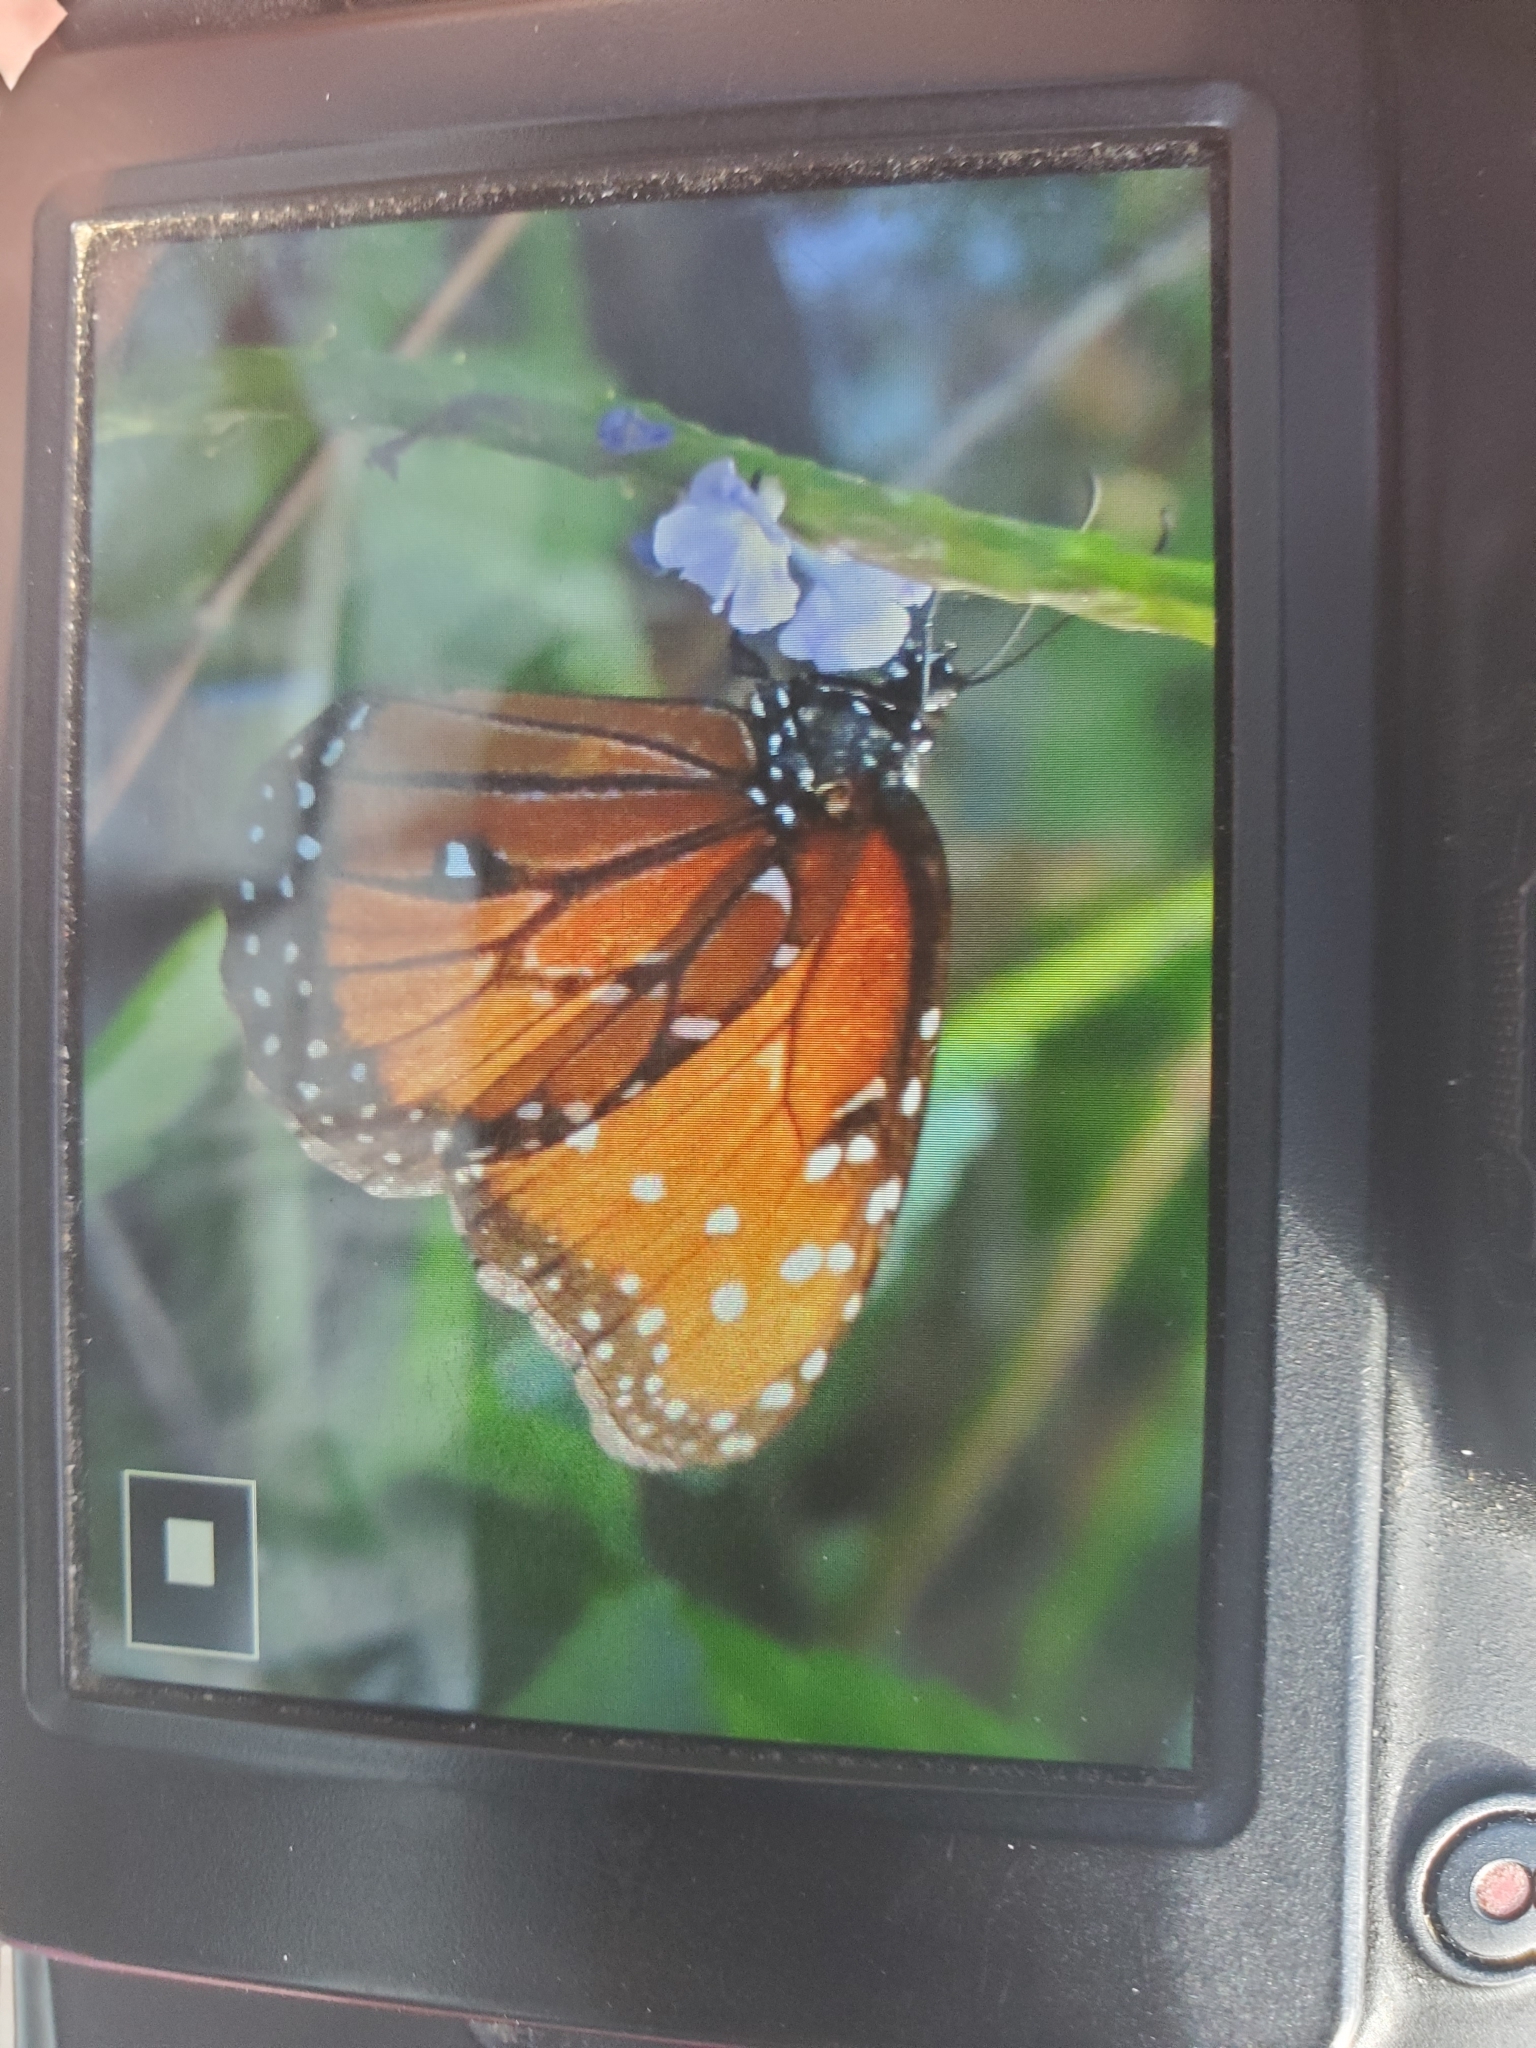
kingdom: Animalia
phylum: Arthropoda
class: Insecta
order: Lepidoptera
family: Nymphalidae
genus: Danaus
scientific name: Danaus gilippus
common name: Queen
